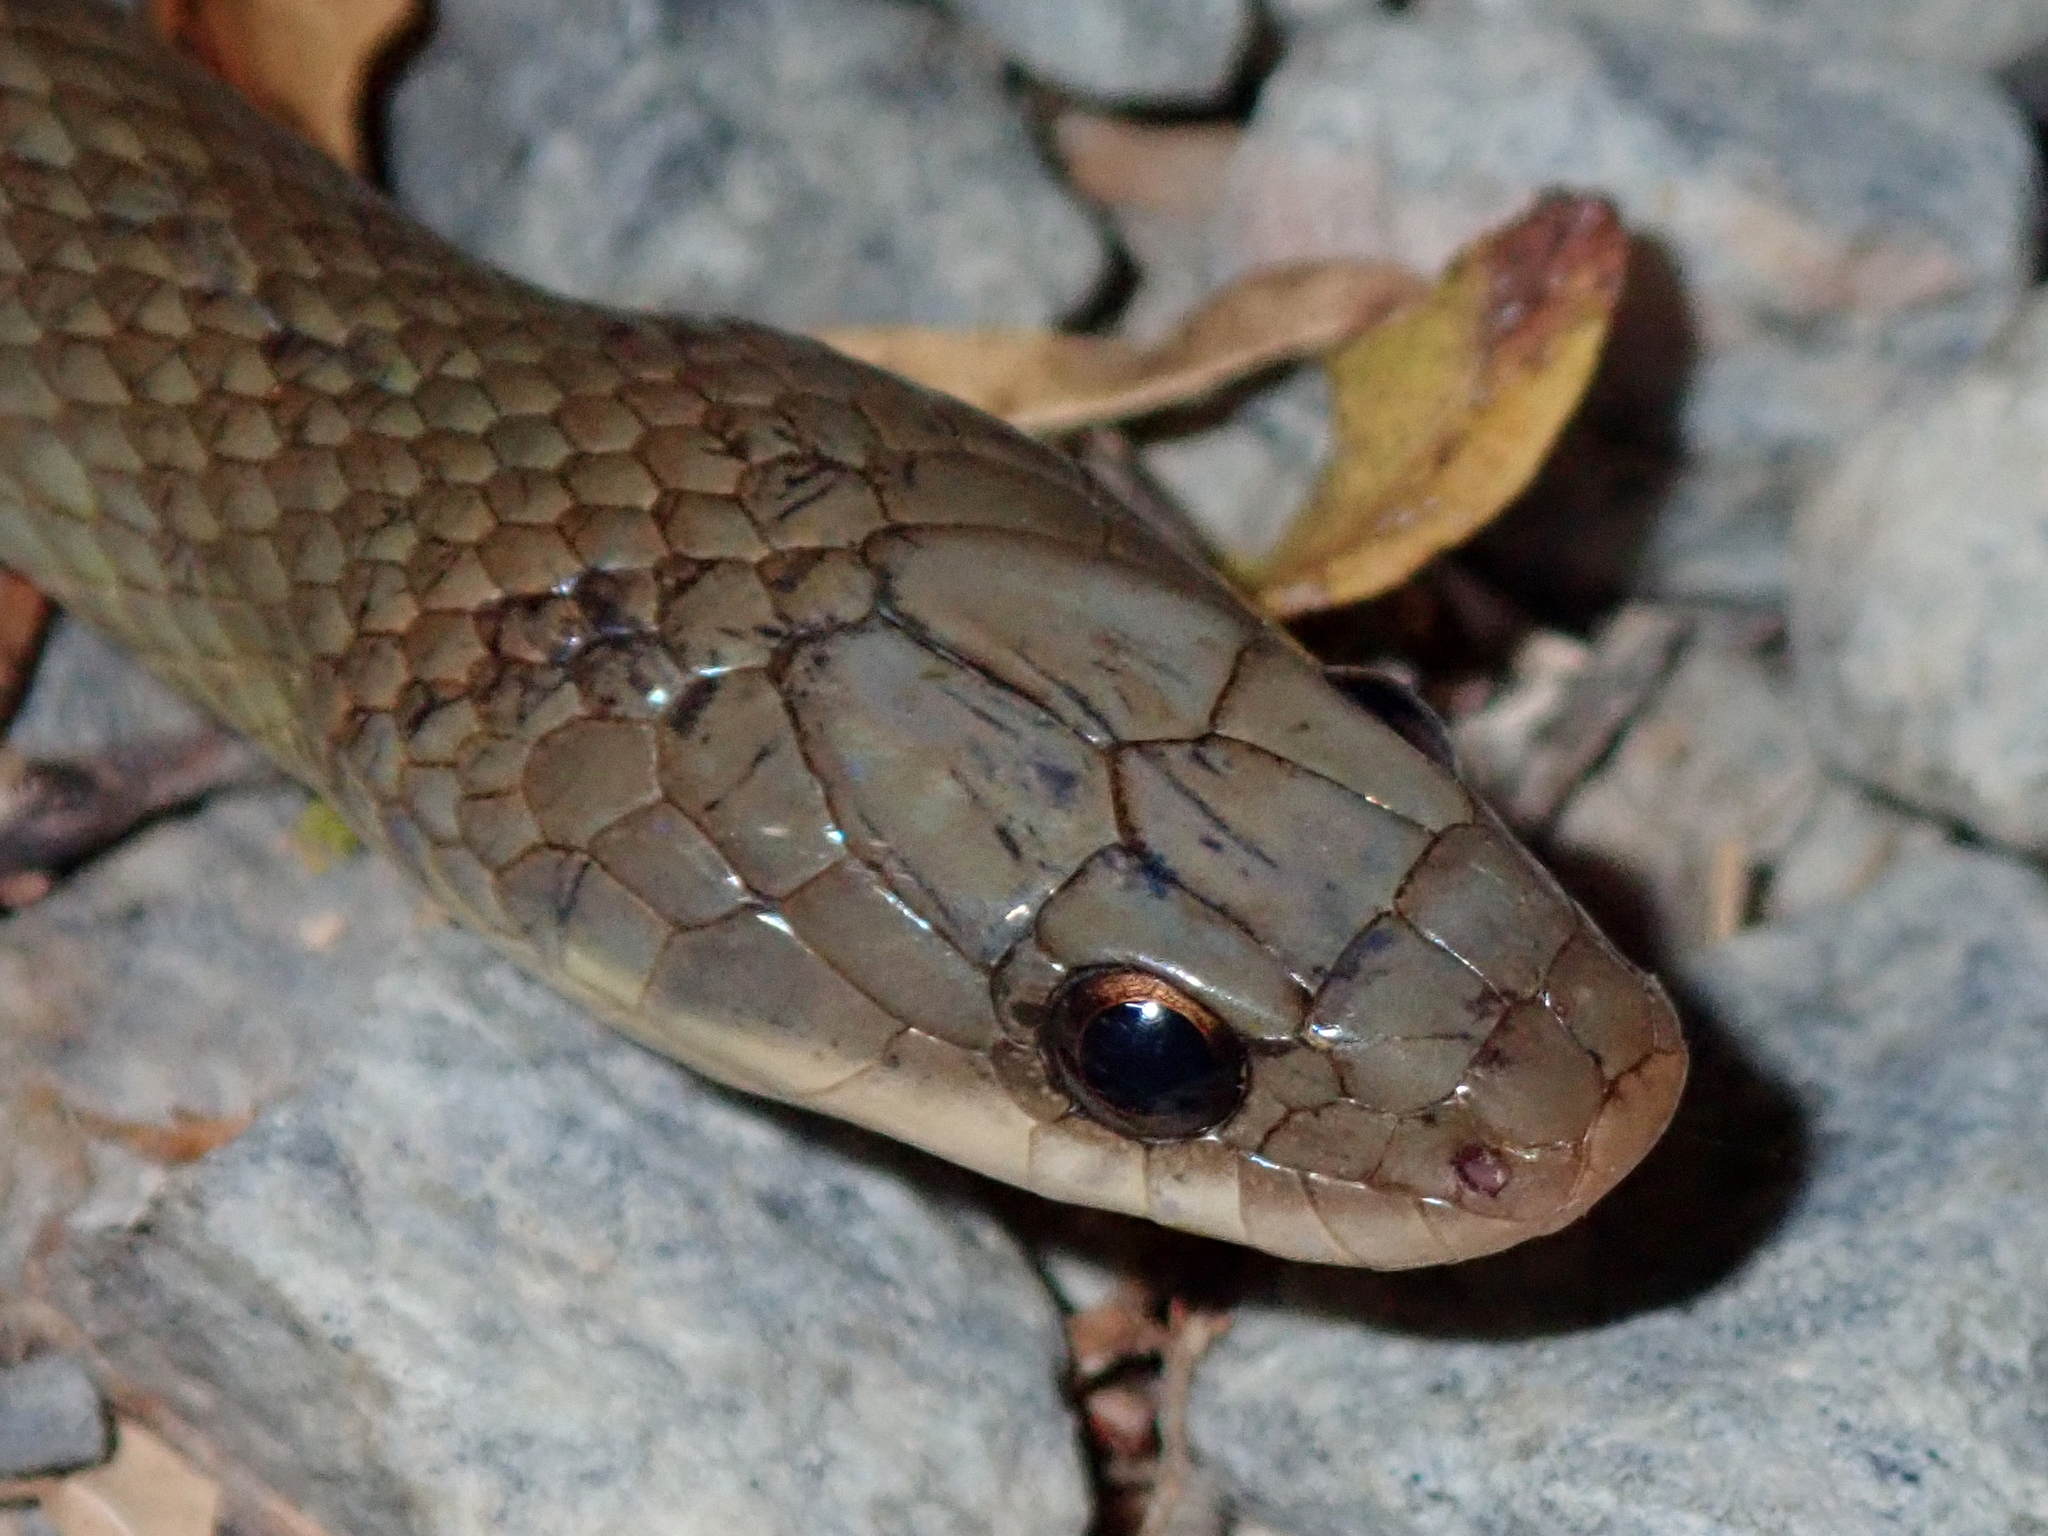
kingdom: Animalia
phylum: Chordata
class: Squamata
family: Colubridae
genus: Erythrolamprus
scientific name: Erythrolamprus poecilogyrus
